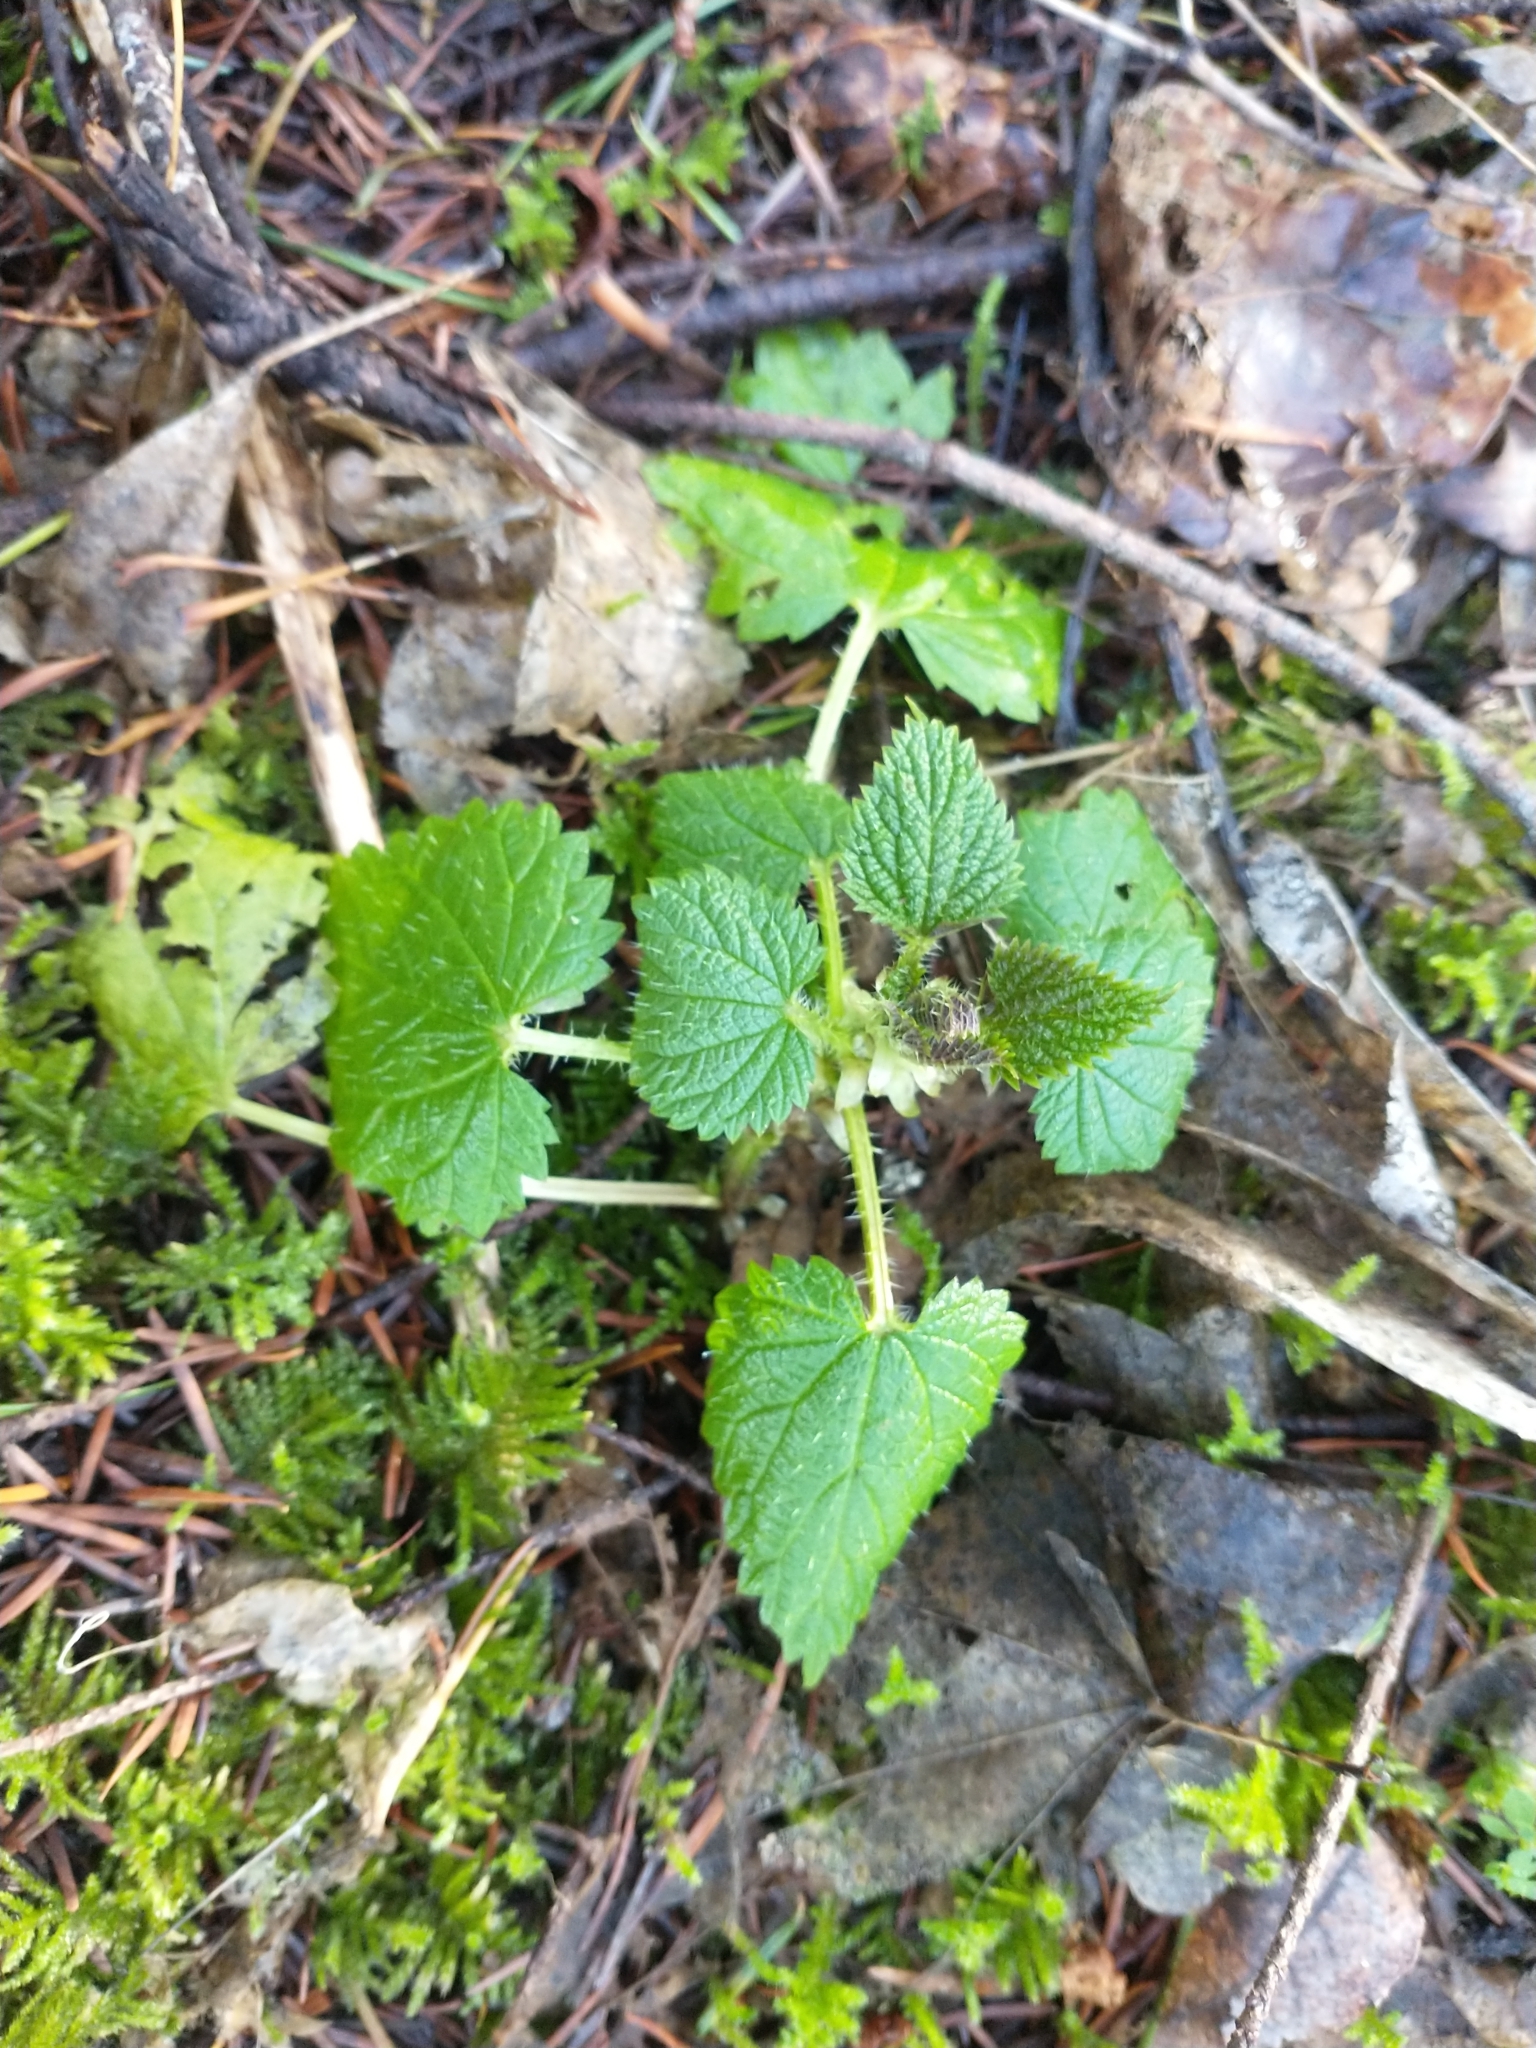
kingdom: Plantae
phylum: Tracheophyta
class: Magnoliopsida
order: Rosales
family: Urticaceae
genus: Urtica
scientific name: Urtica dioica
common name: Common nettle
